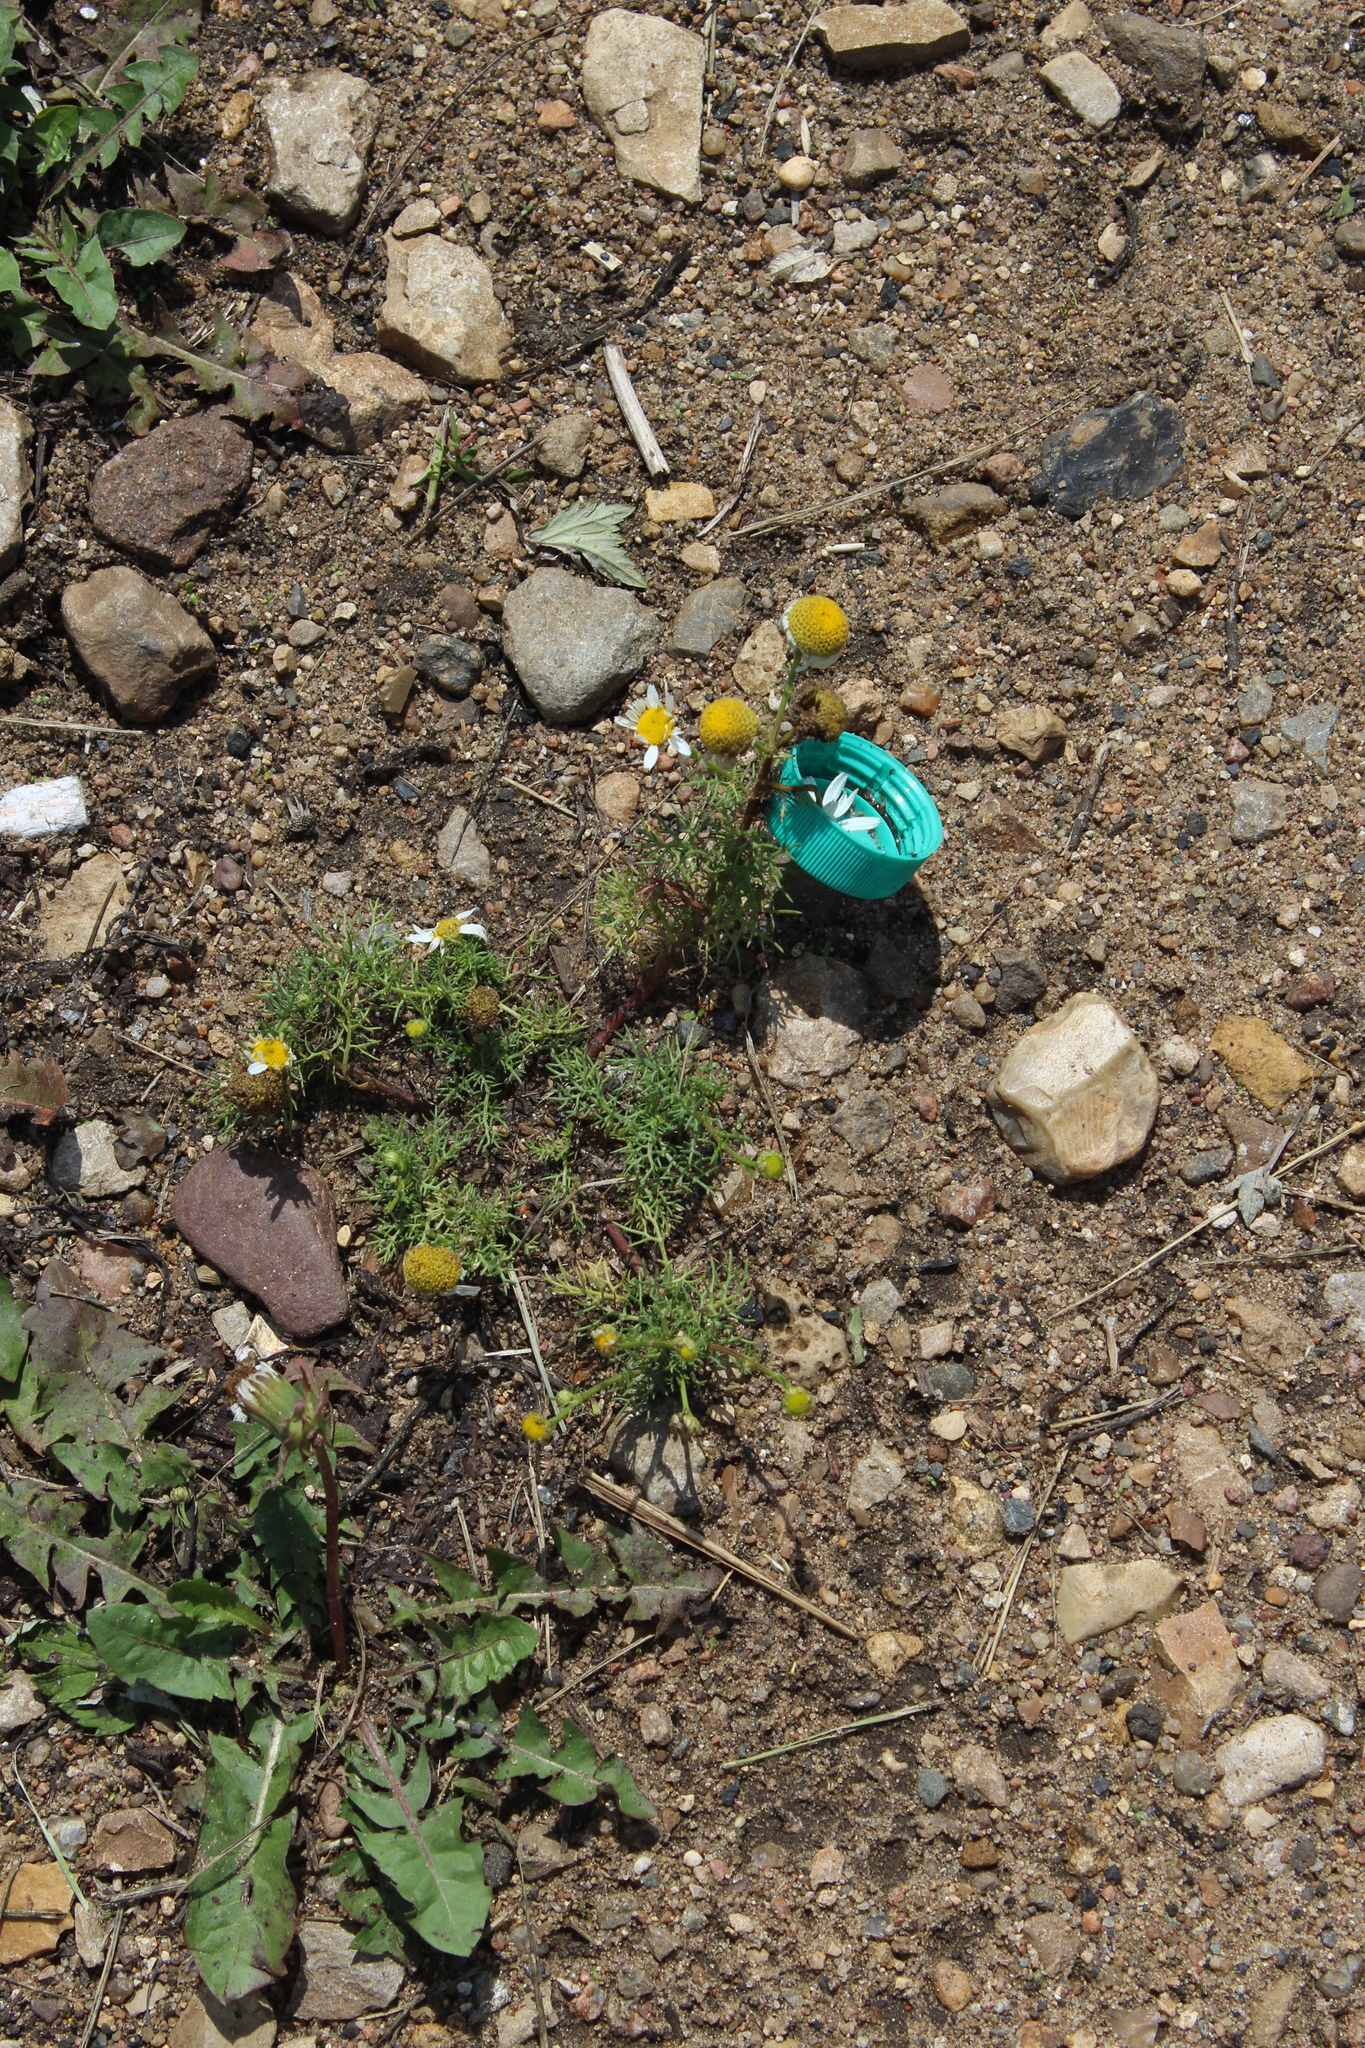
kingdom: Plantae
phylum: Tracheophyta
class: Magnoliopsida
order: Asterales
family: Asteraceae
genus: Tripleurospermum
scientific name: Tripleurospermum inodorum
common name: Scentless mayweed
